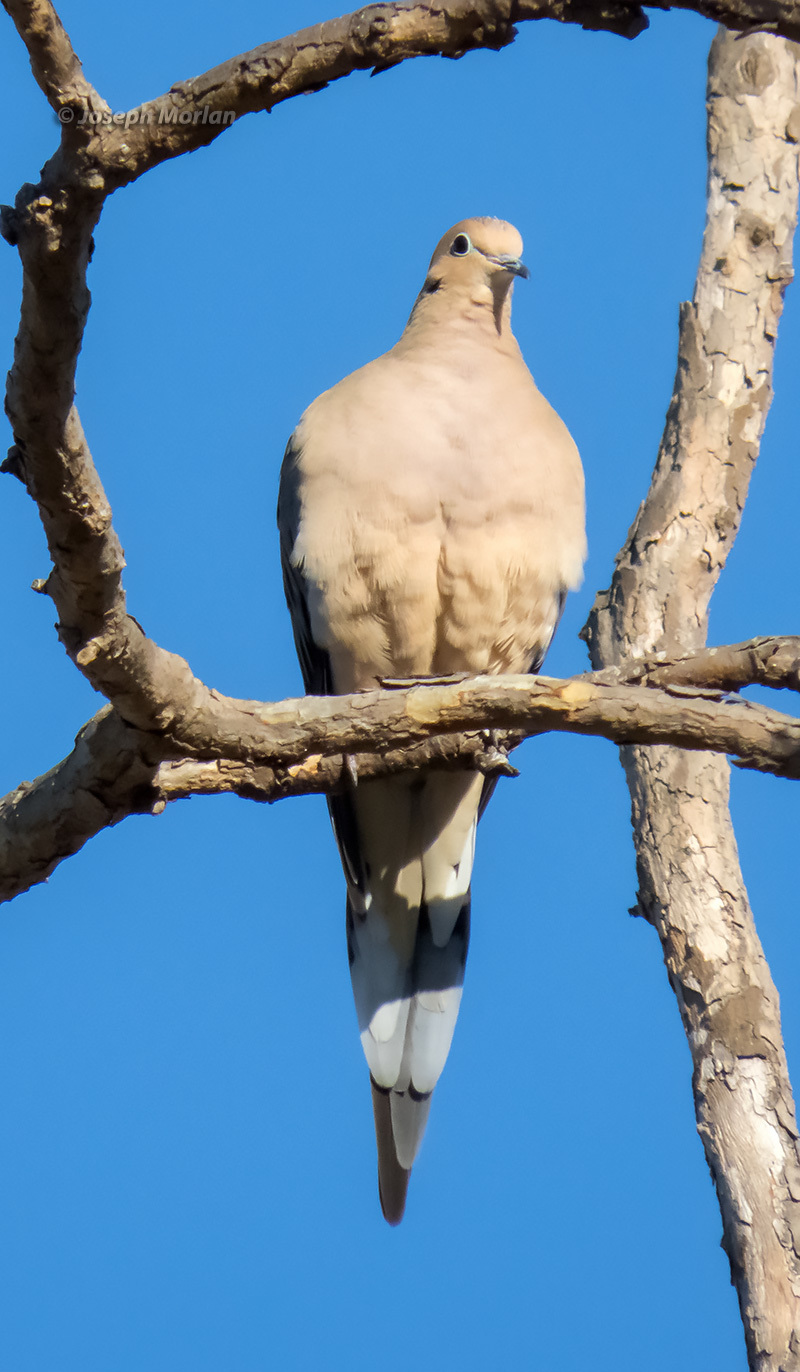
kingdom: Animalia
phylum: Chordata
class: Aves
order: Columbiformes
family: Columbidae
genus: Zenaida
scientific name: Zenaida macroura
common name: Mourning dove
